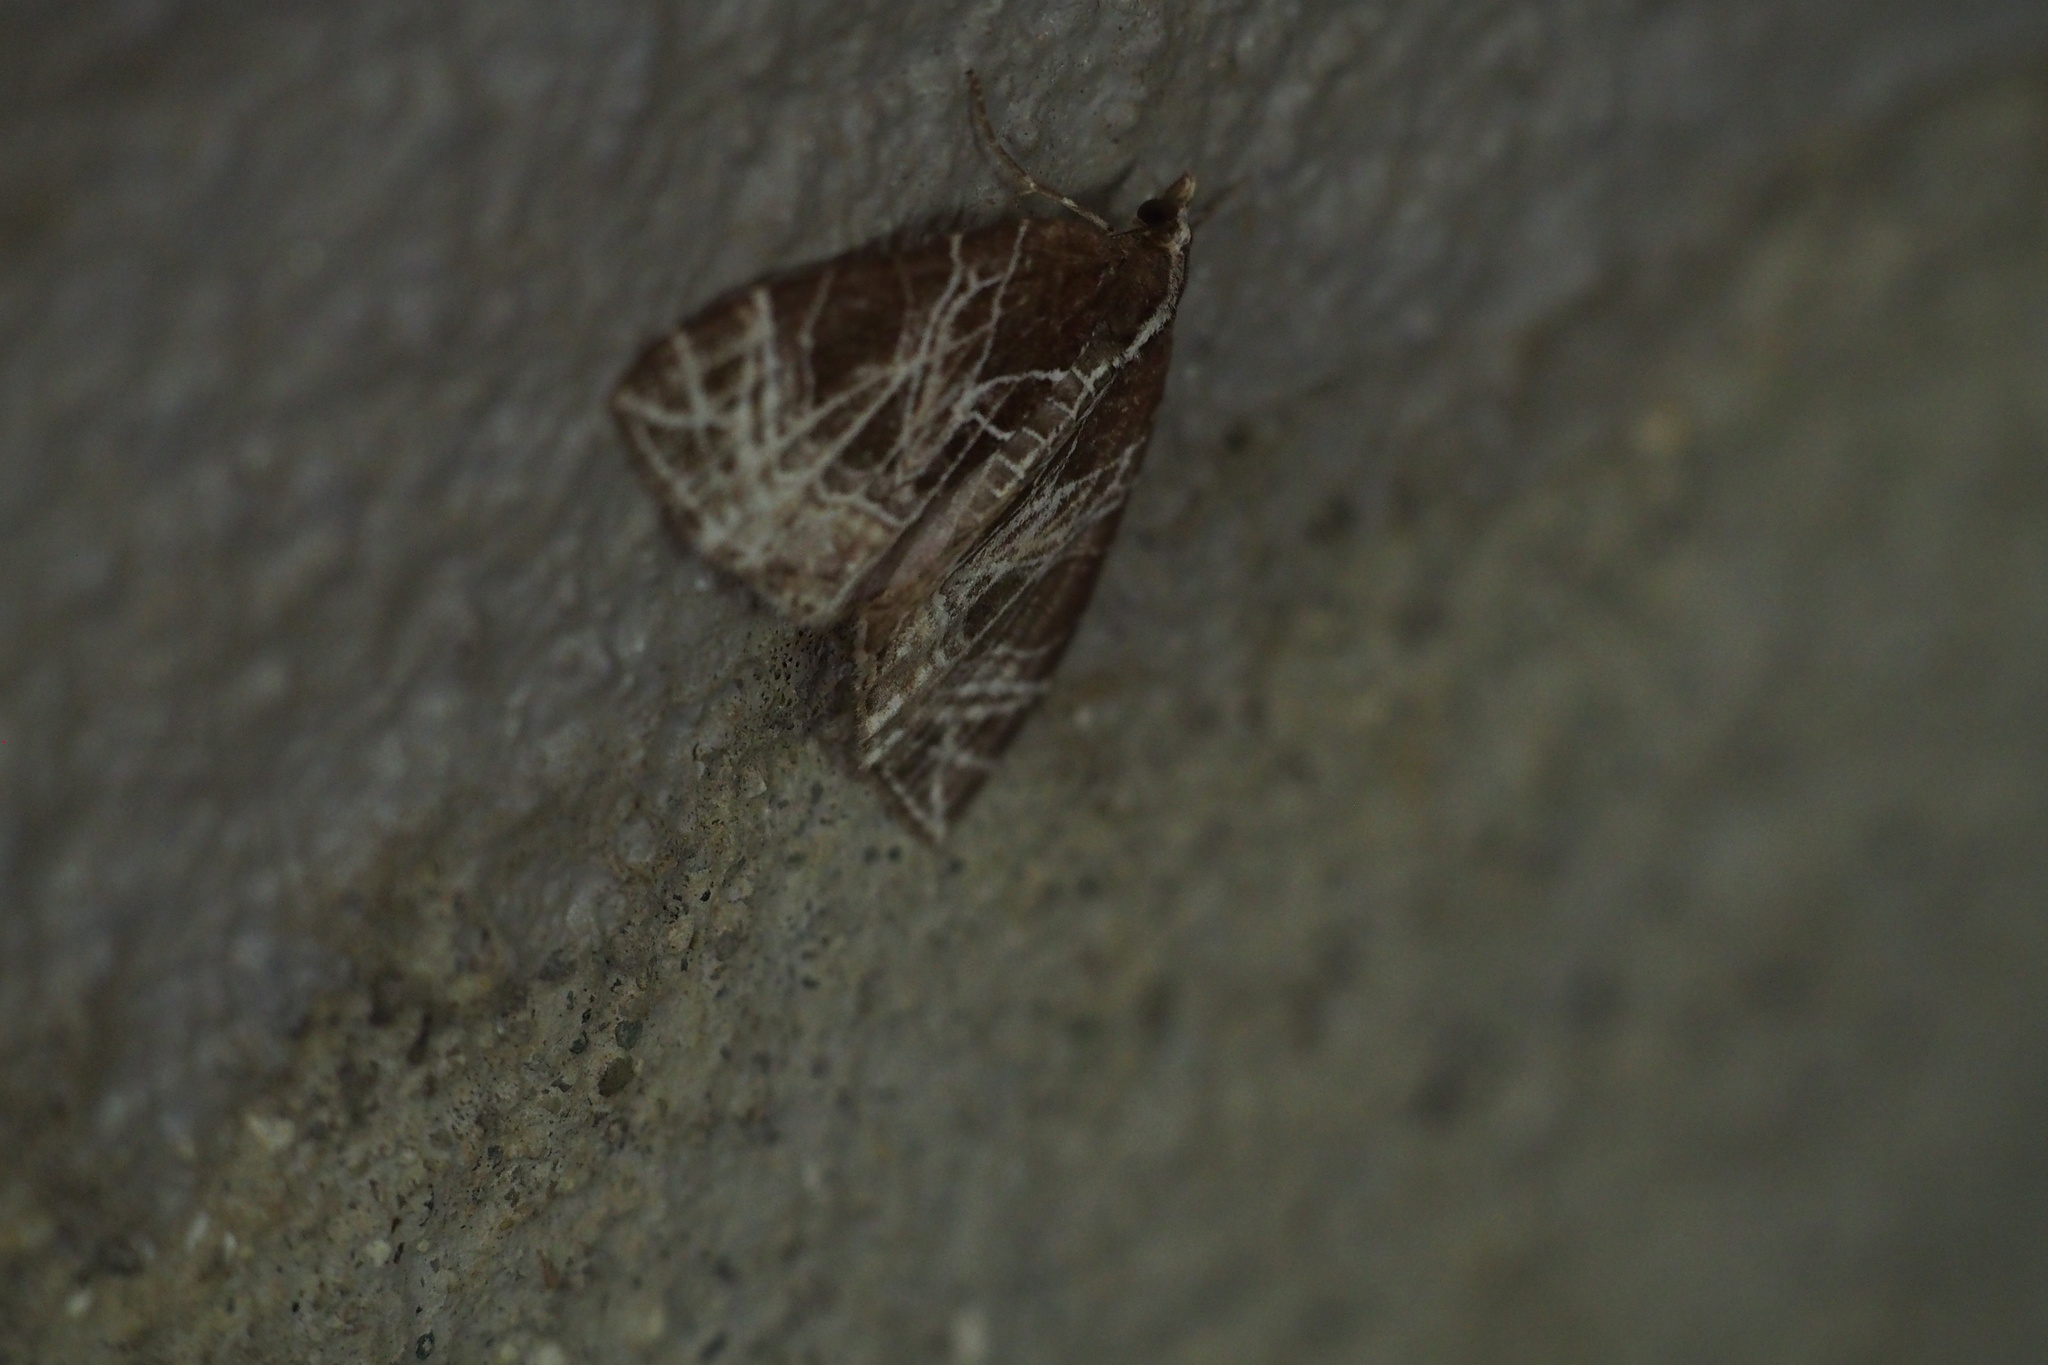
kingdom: Animalia
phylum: Arthropoda
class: Insecta
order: Lepidoptera
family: Geometridae
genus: Evecliptopera
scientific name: Evecliptopera illitata
